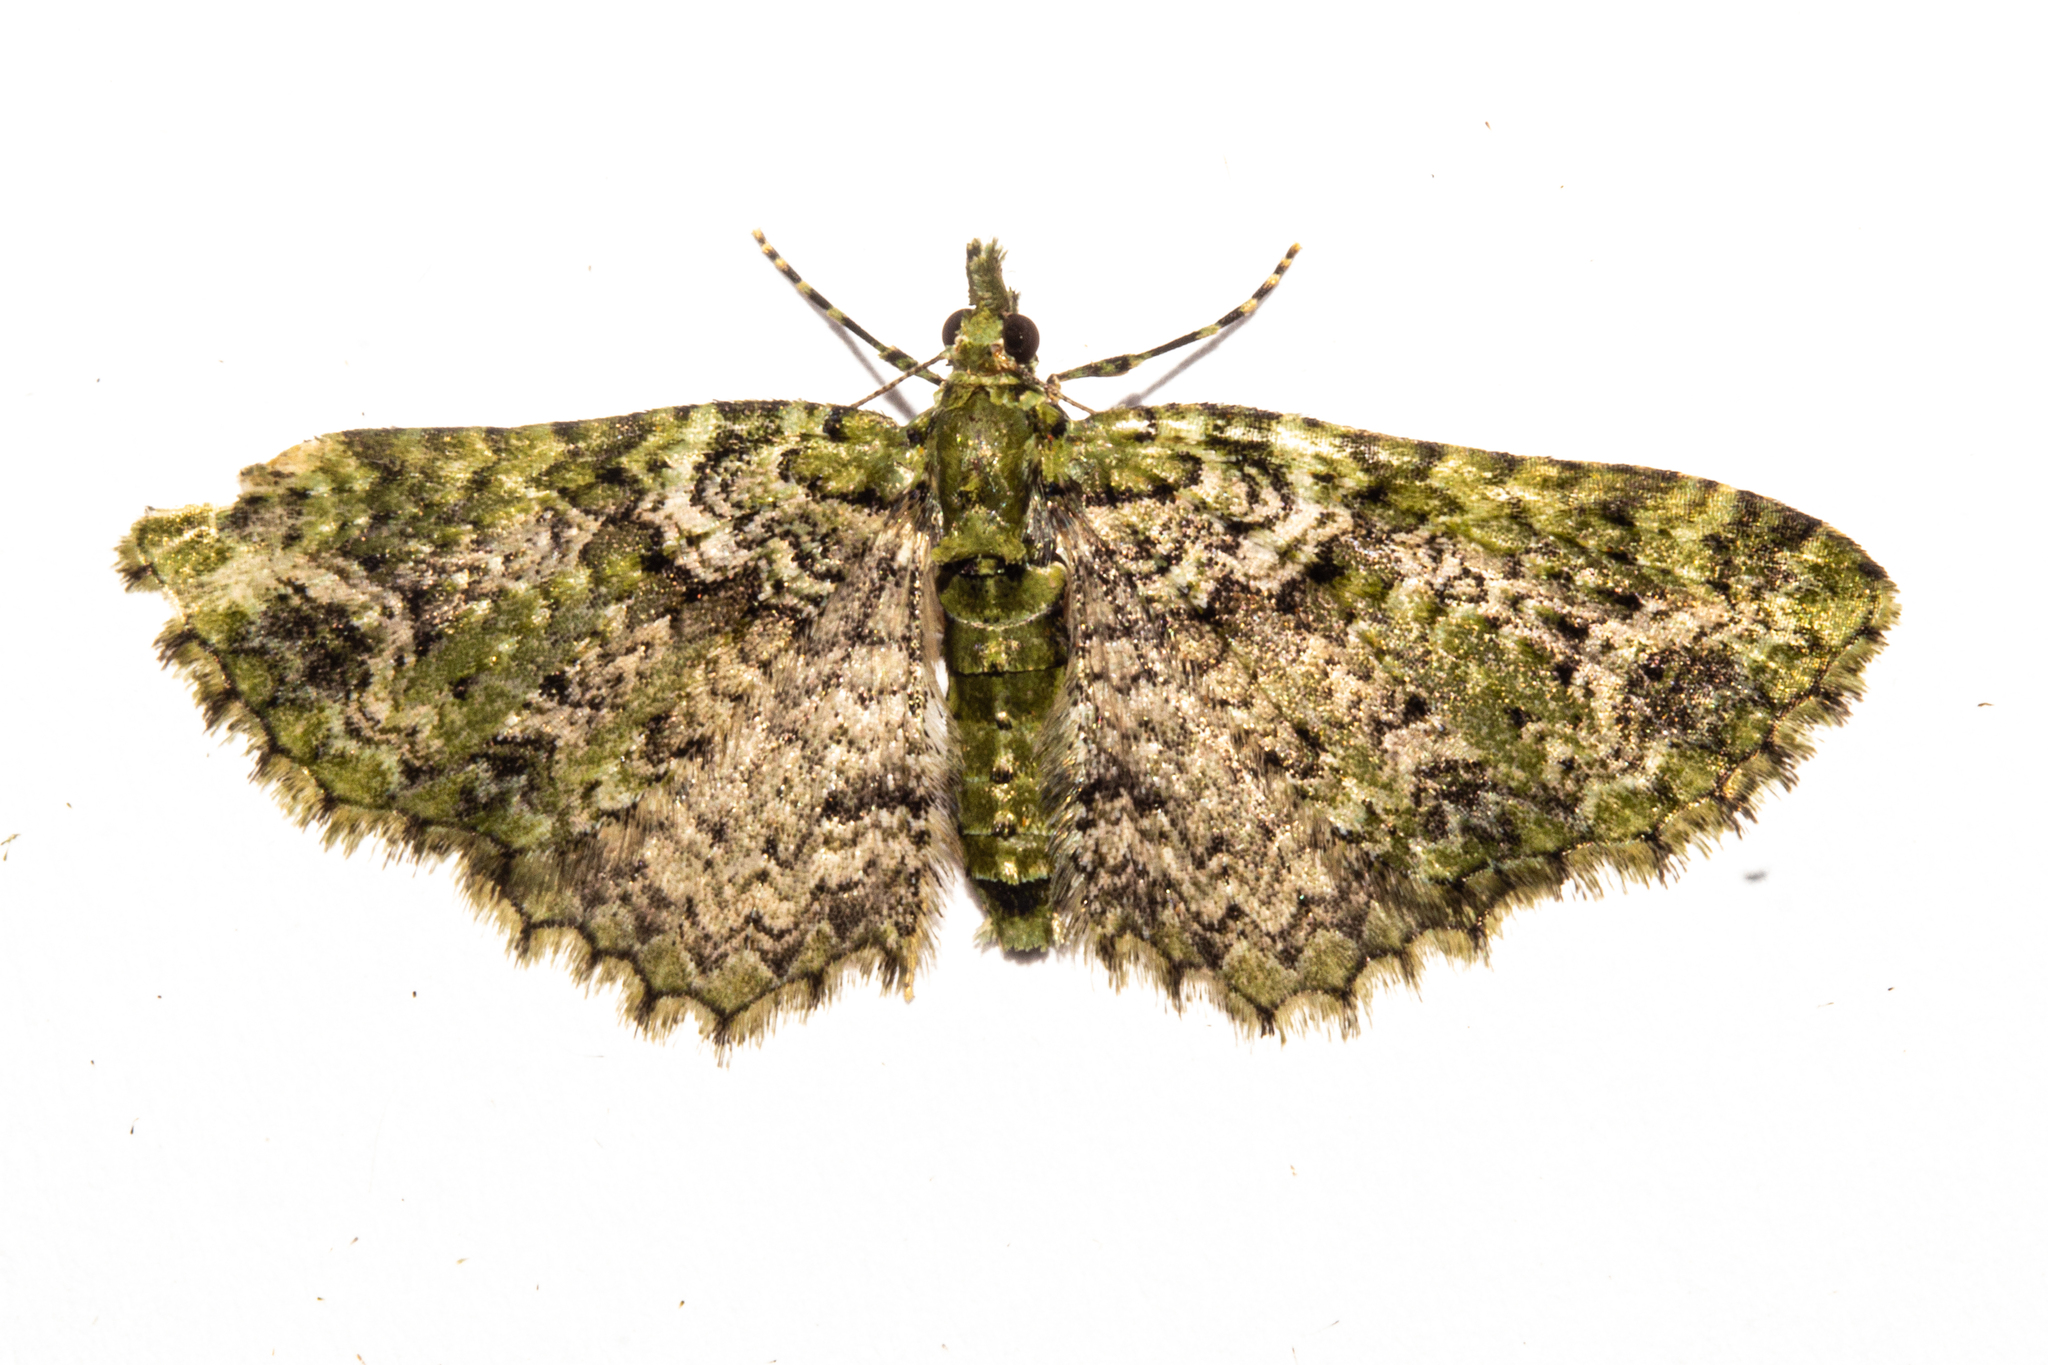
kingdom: Animalia
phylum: Arthropoda
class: Insecta
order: Lepidoptera
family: Geometridae
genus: Pasiphila
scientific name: Pasiphila muscosata
